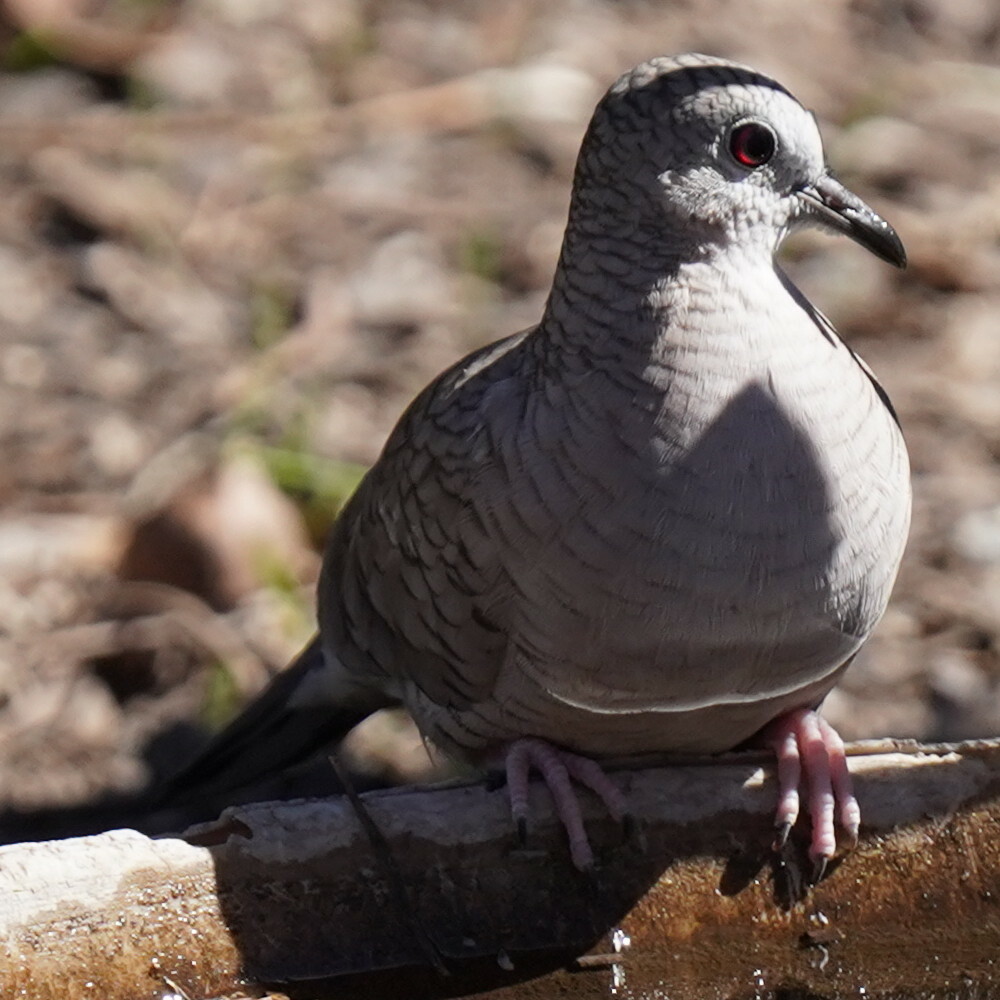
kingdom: Animalia
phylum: Chordata
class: Aves
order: Columbiformes
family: Columbidae
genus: Columbina
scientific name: Columbina inca
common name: Inca dove
